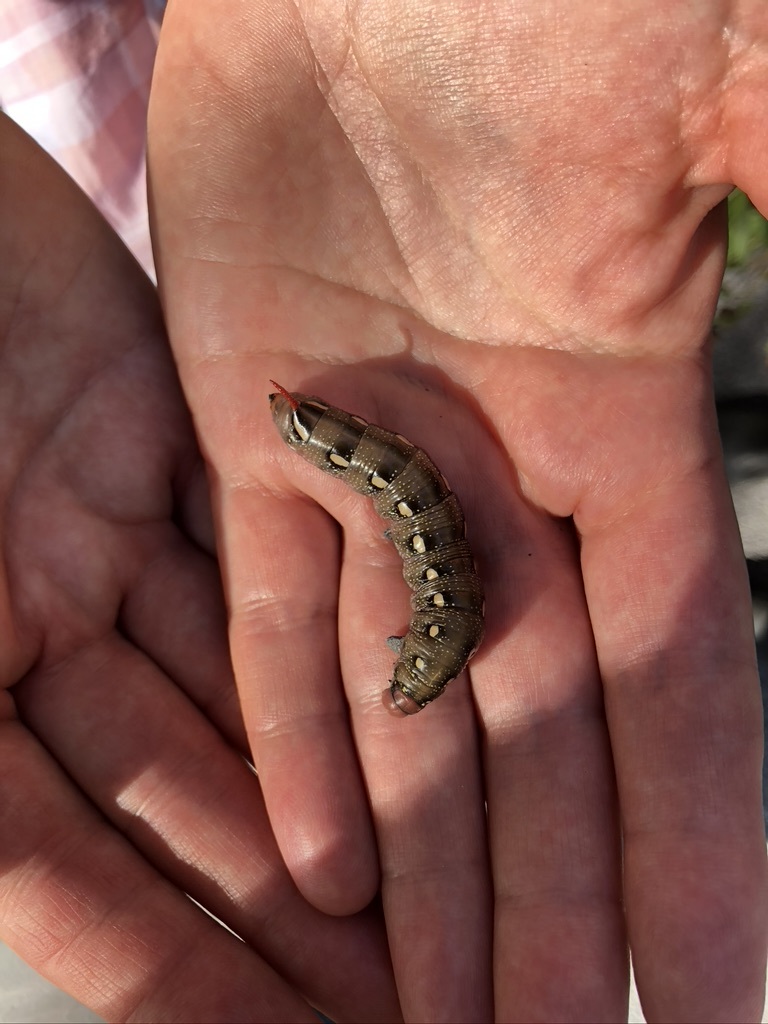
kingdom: Animalia
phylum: Arthropoda
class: Insecta
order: Lepidoptera
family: Sphingidae
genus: Hyles
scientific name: Hyles gallii
